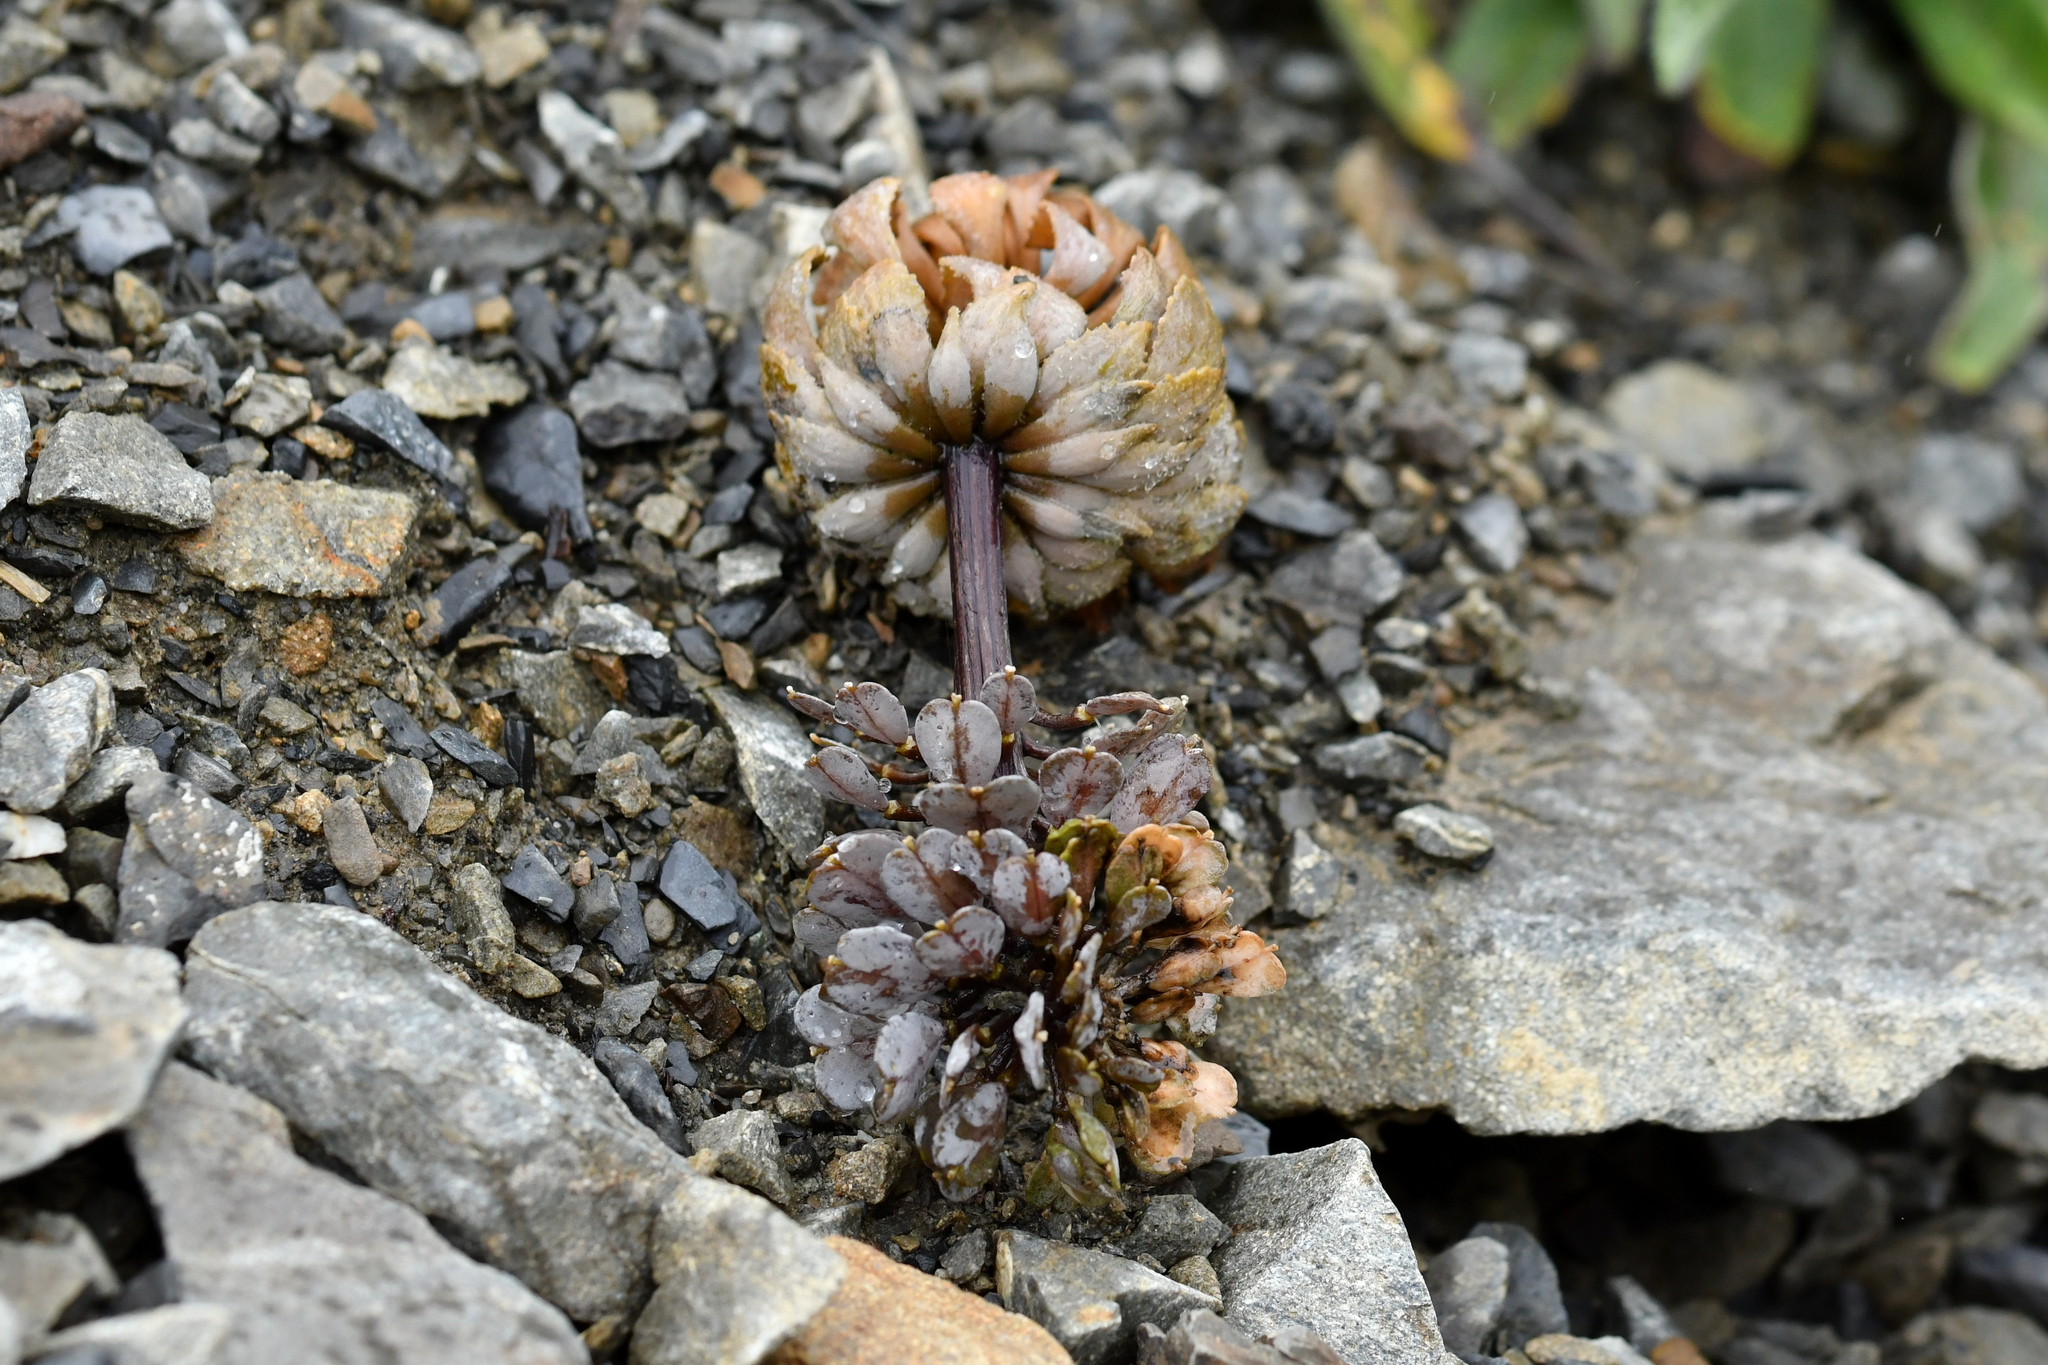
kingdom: Plantae
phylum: Tracheophyta
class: Magnoliopsida
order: Brassicales
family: Brassicaceae
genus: Notothlaspi
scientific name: Notothlaspi rosulatum
